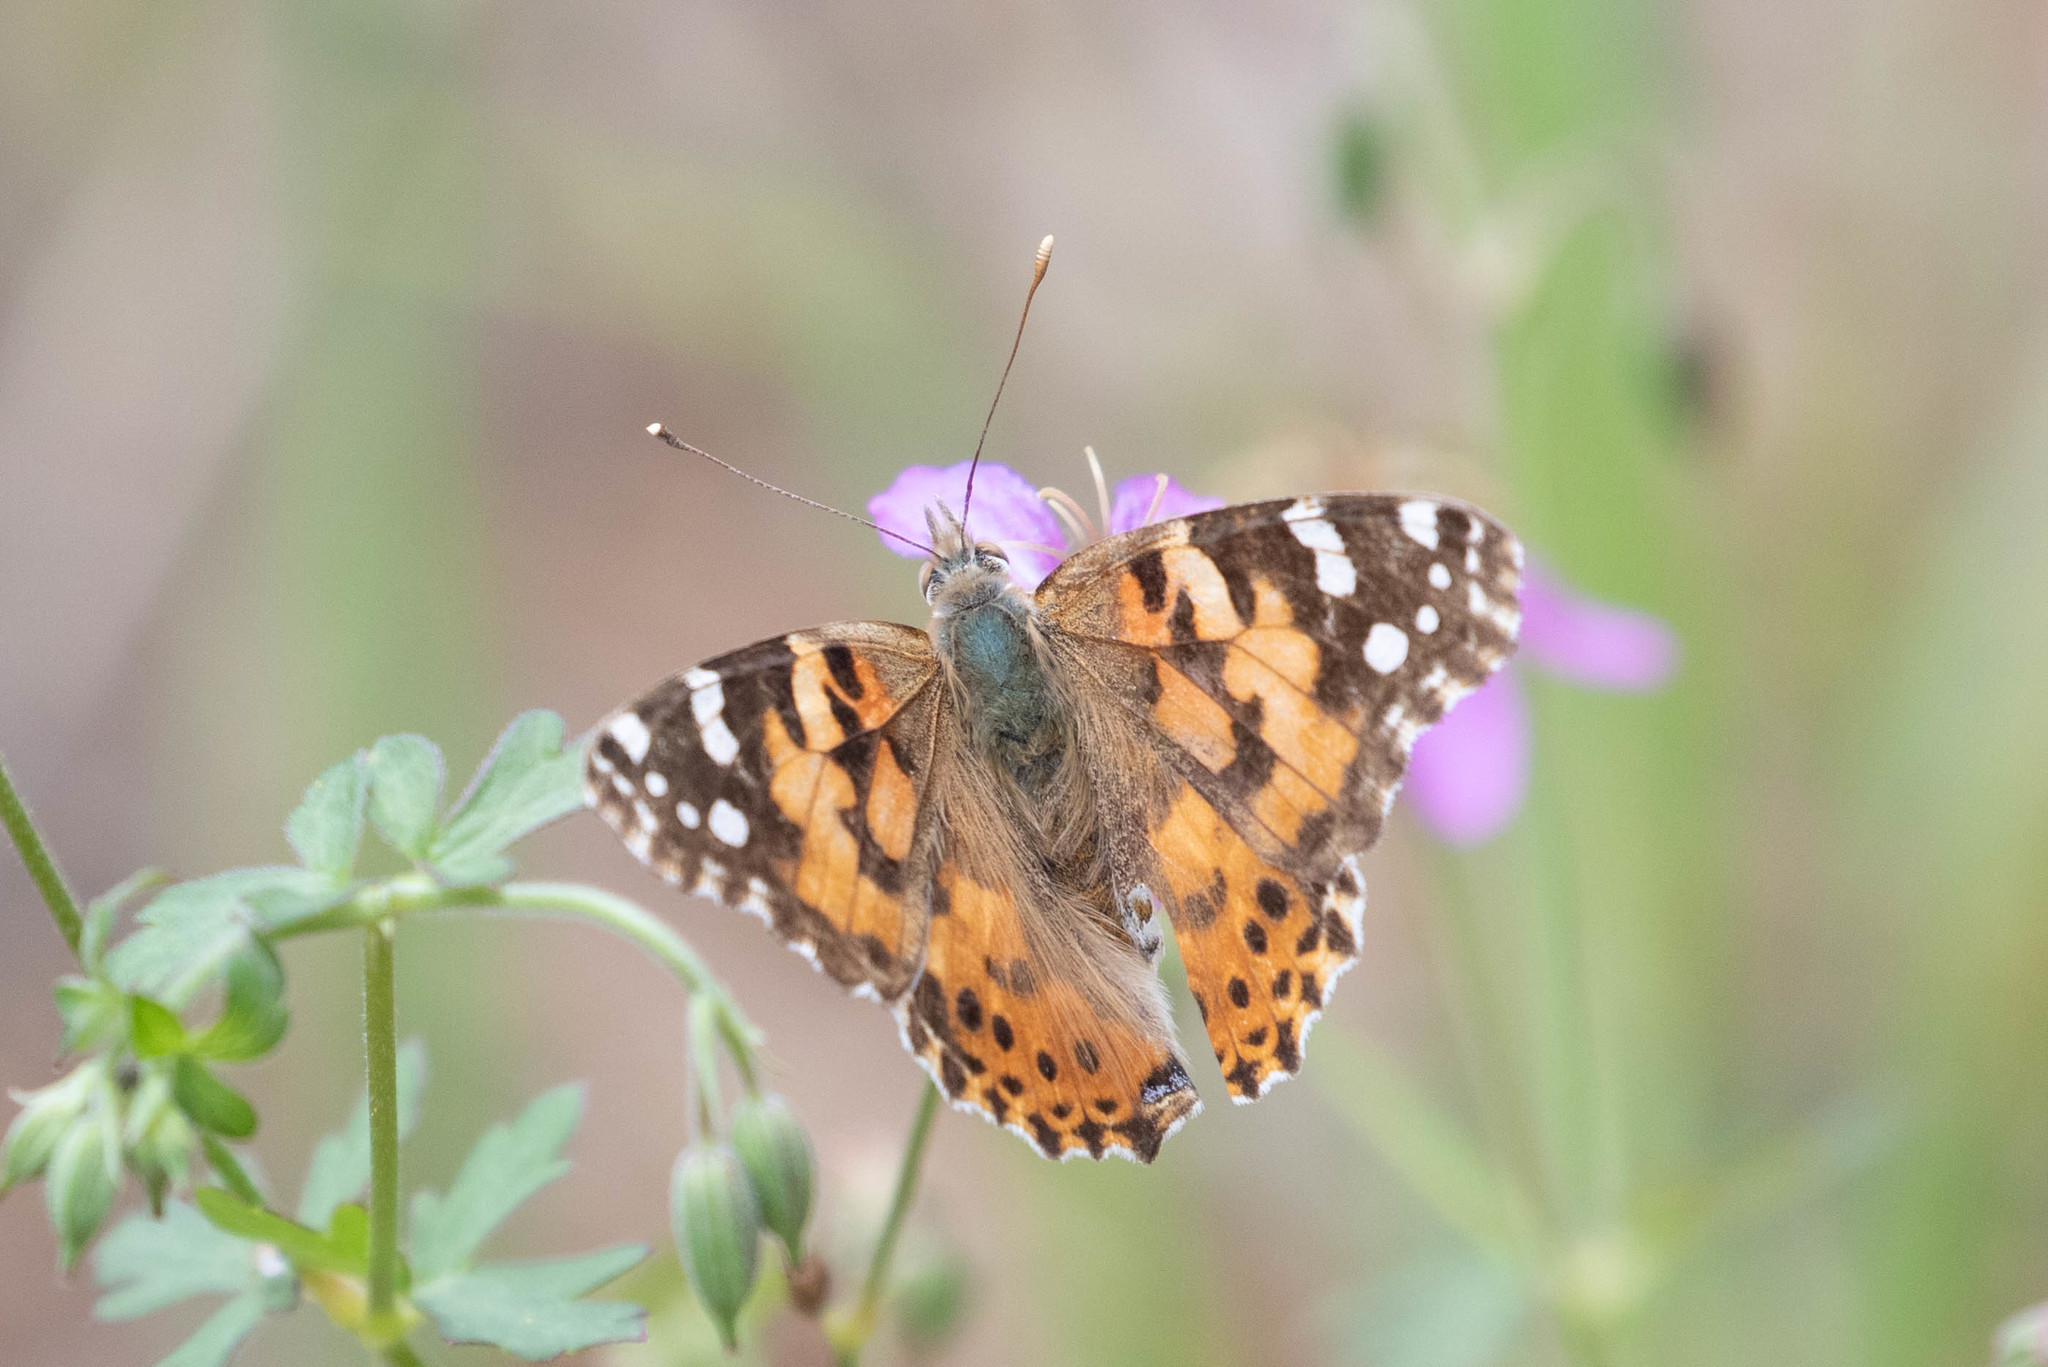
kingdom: Animalia
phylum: Arthropoda
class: Insecta
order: Lepidoptera
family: Nymphalidae
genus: Vanessa
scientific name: Vanessa cardui
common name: Painted lady
